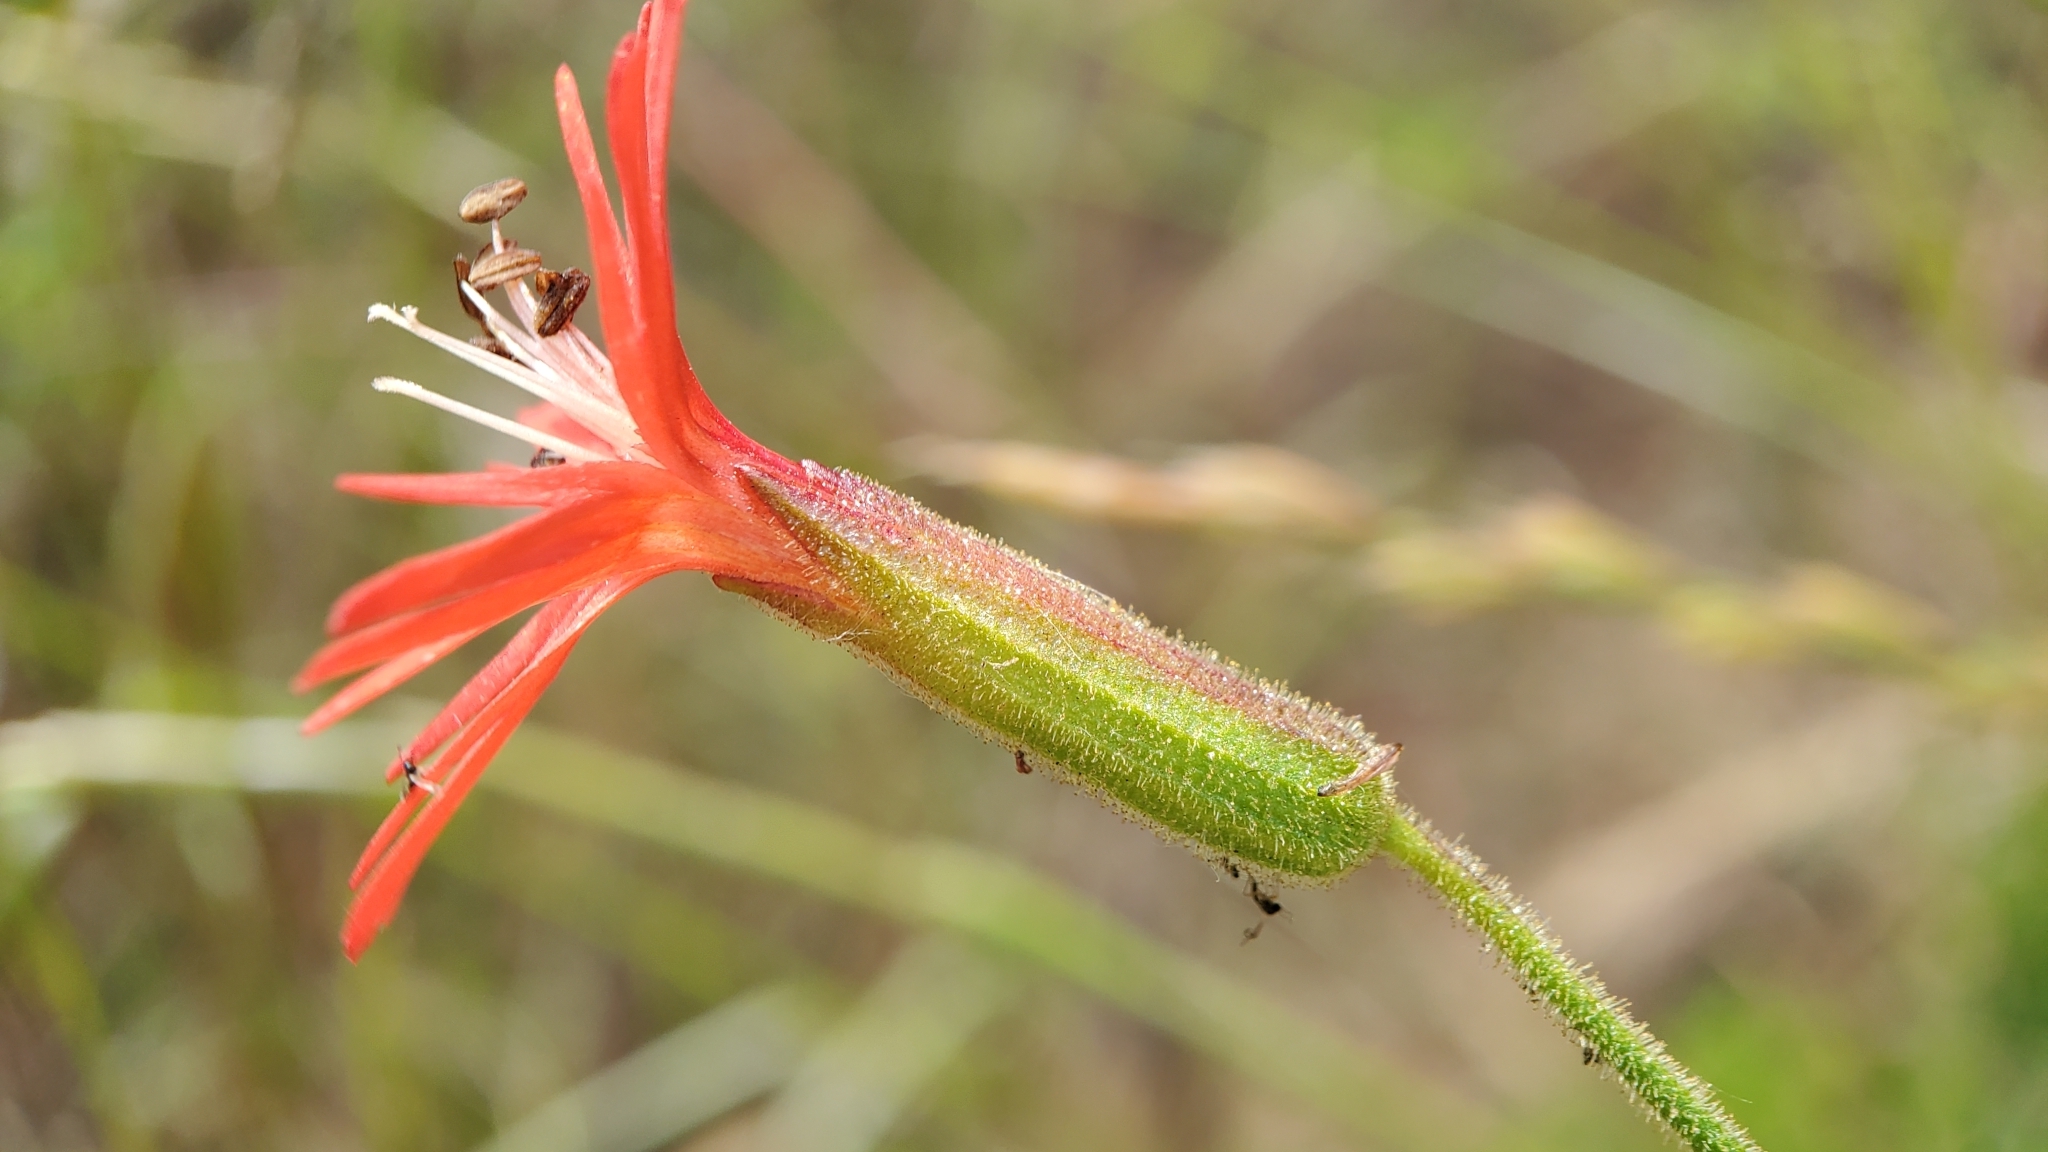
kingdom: Plantae
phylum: Tracheophyta
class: Magnoliopsida
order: Caryophyllales
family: Caryophyllaceae
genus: Silene
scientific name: Silene laciniata
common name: Indian-pink
